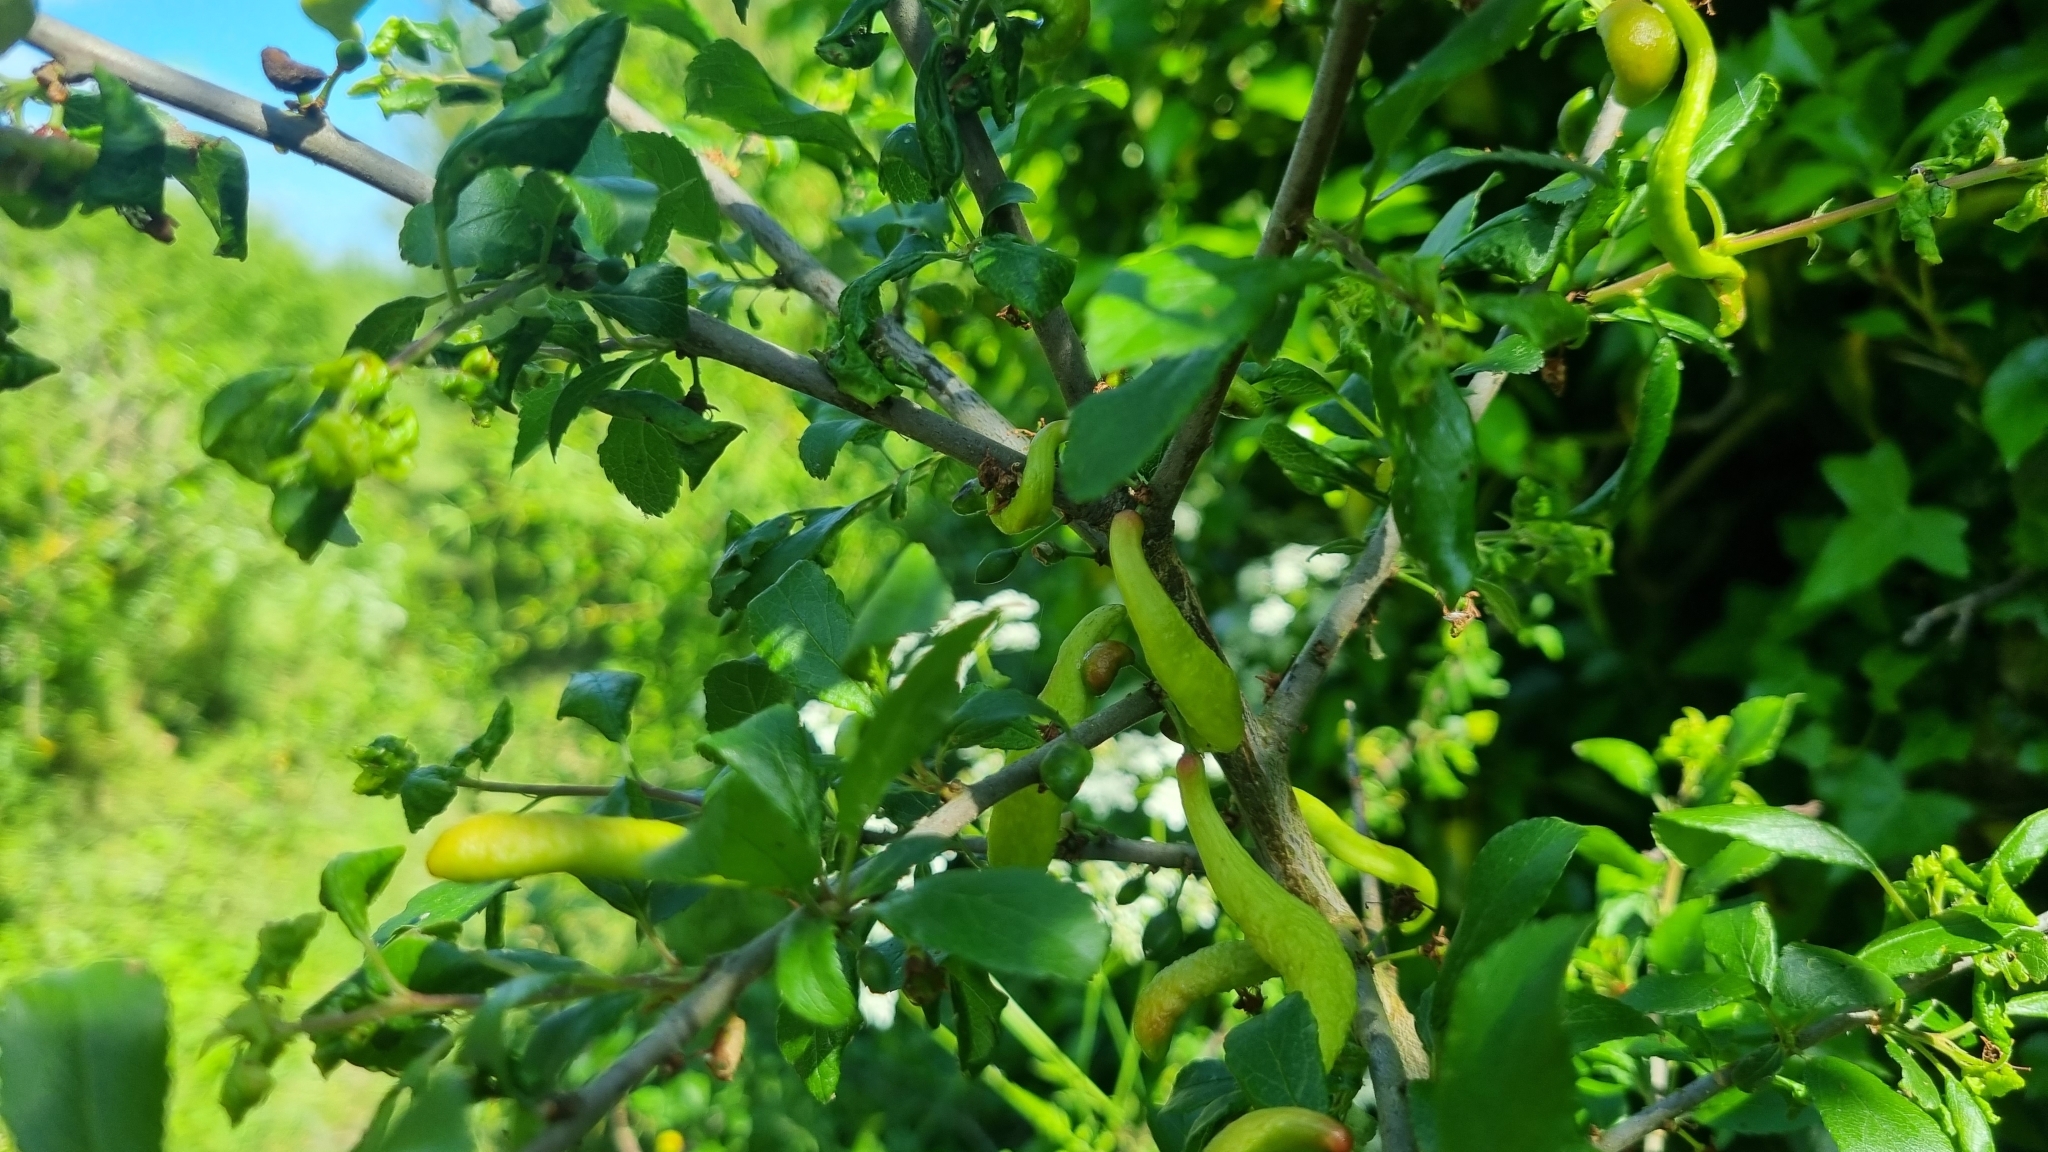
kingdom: Fungi
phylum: Ascomycota
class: Taphrinomycetes
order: Taphrinales
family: Taphrinaceae
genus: Taphrina
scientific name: Taphrina pruni
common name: Pocket plum
